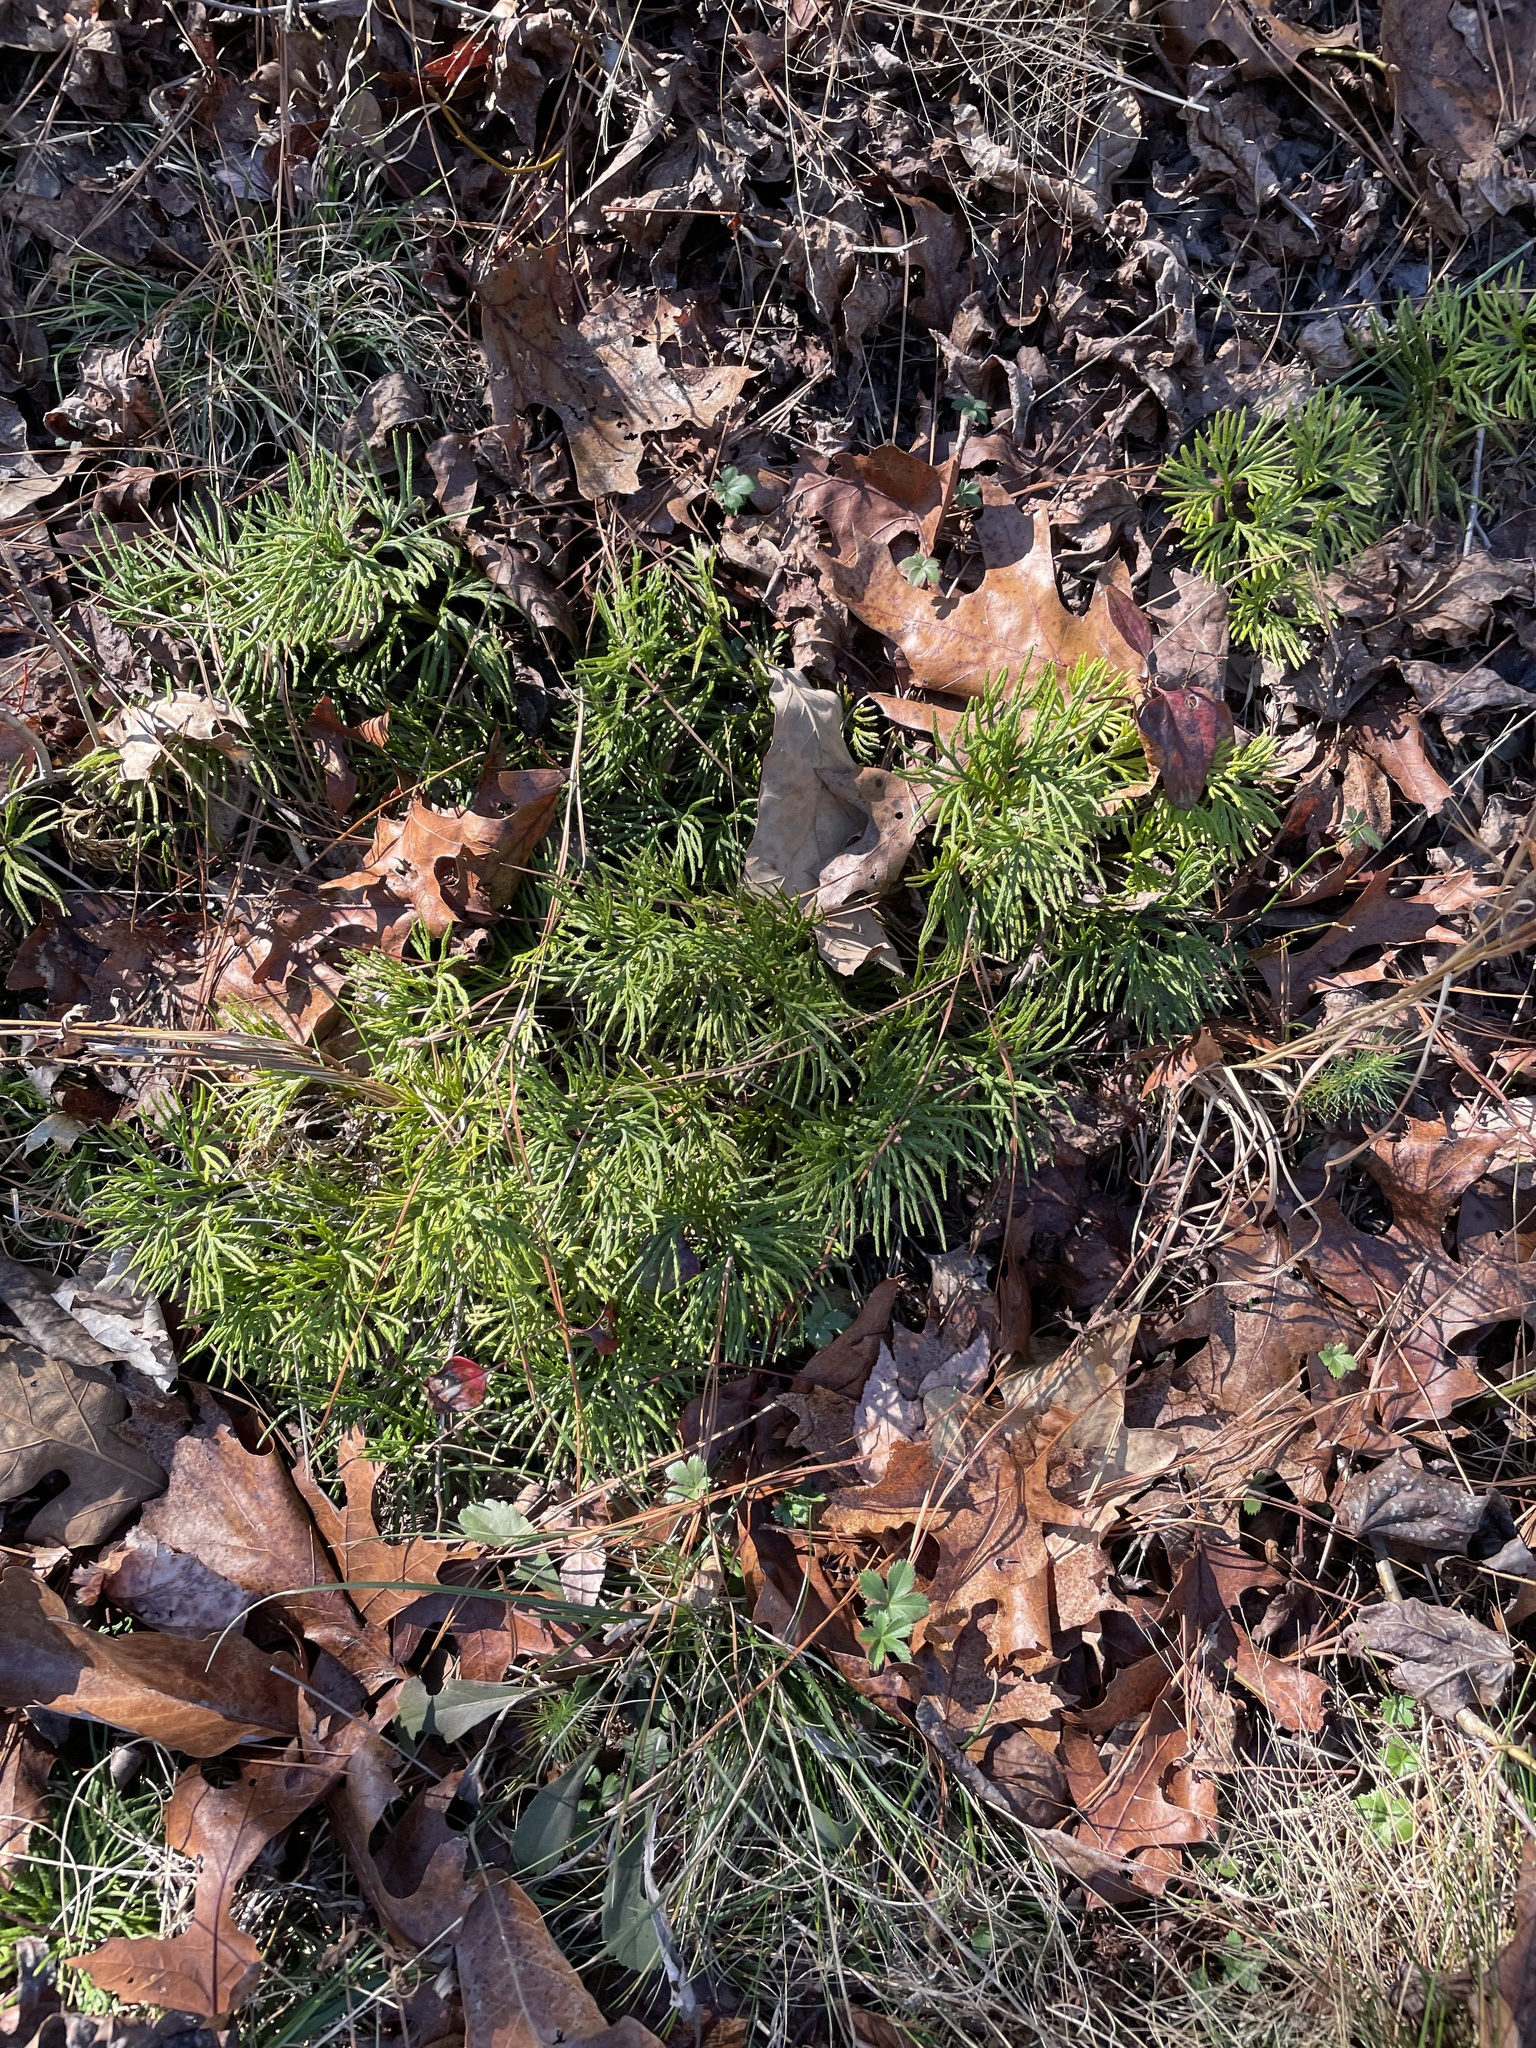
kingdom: Plantae
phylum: Tracheophyta
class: Lycopodiopsida
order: Lycopodiales
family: Lycopodiaceae
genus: Diphasiastrum
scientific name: Diphasiastrum digitatum
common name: Southern running-pine
